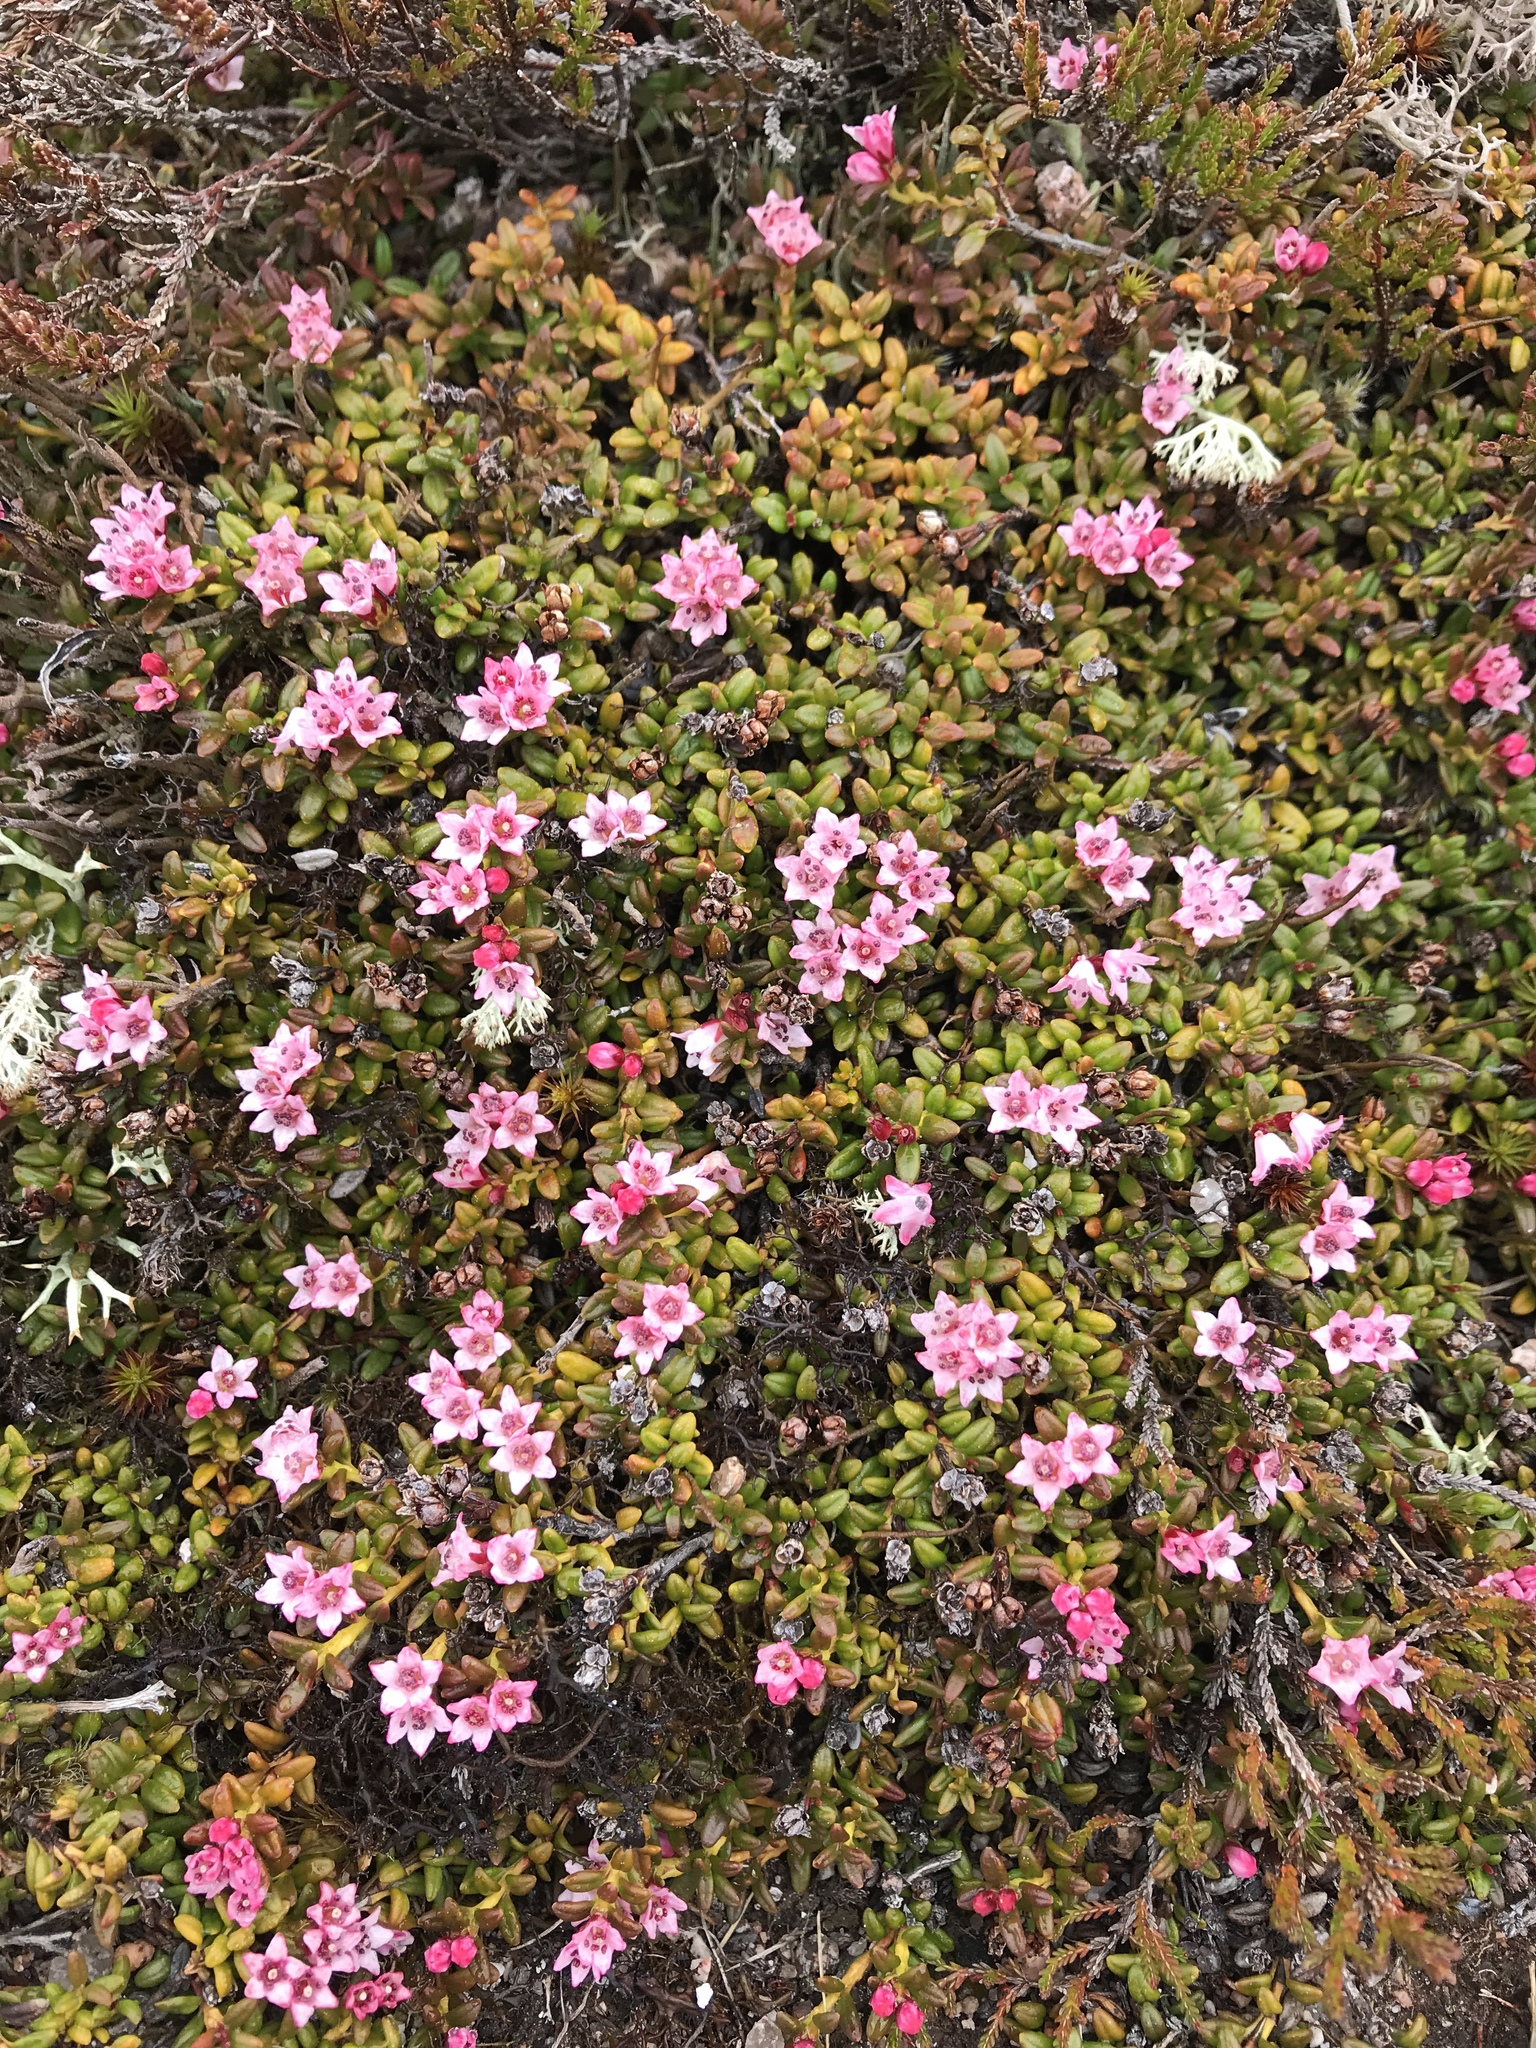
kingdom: Plantae
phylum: Tracheophyta
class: Magnoliopsida
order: Ericales
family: Ericaceae
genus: Kalmia
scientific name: Kalmia procumbens
